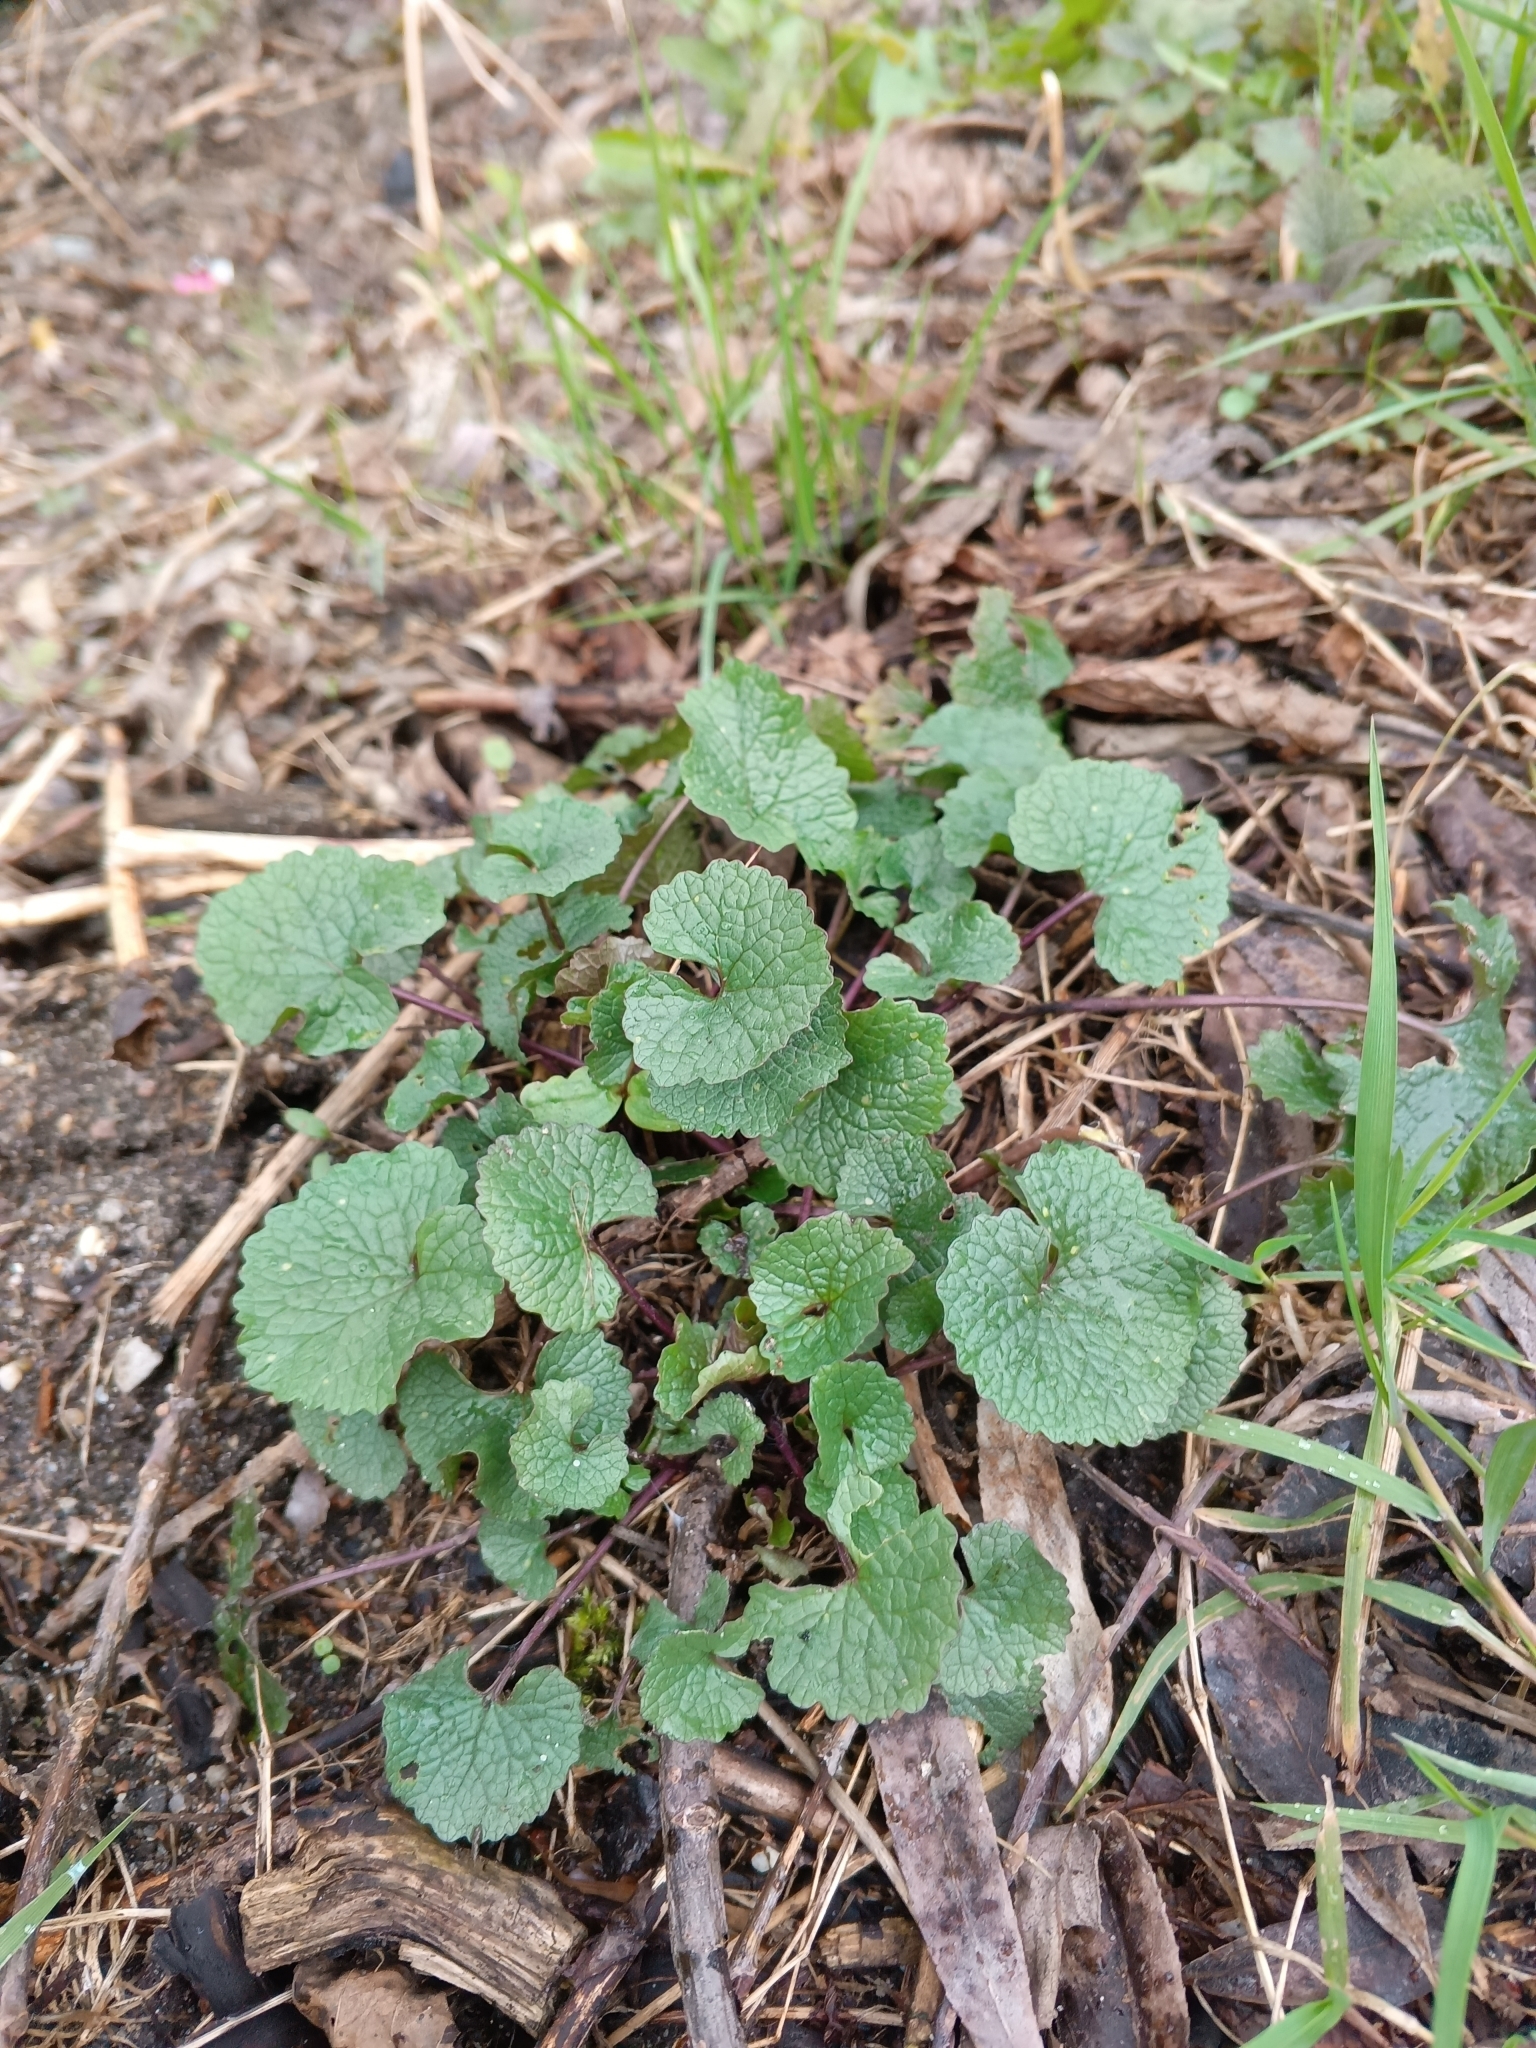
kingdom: Plantae
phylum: Tracheophyta
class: Magnoliopsida
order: Brassicales
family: Brassicaceae
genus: Alliaria
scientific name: Alliaria petiolata
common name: Garlic mustard
